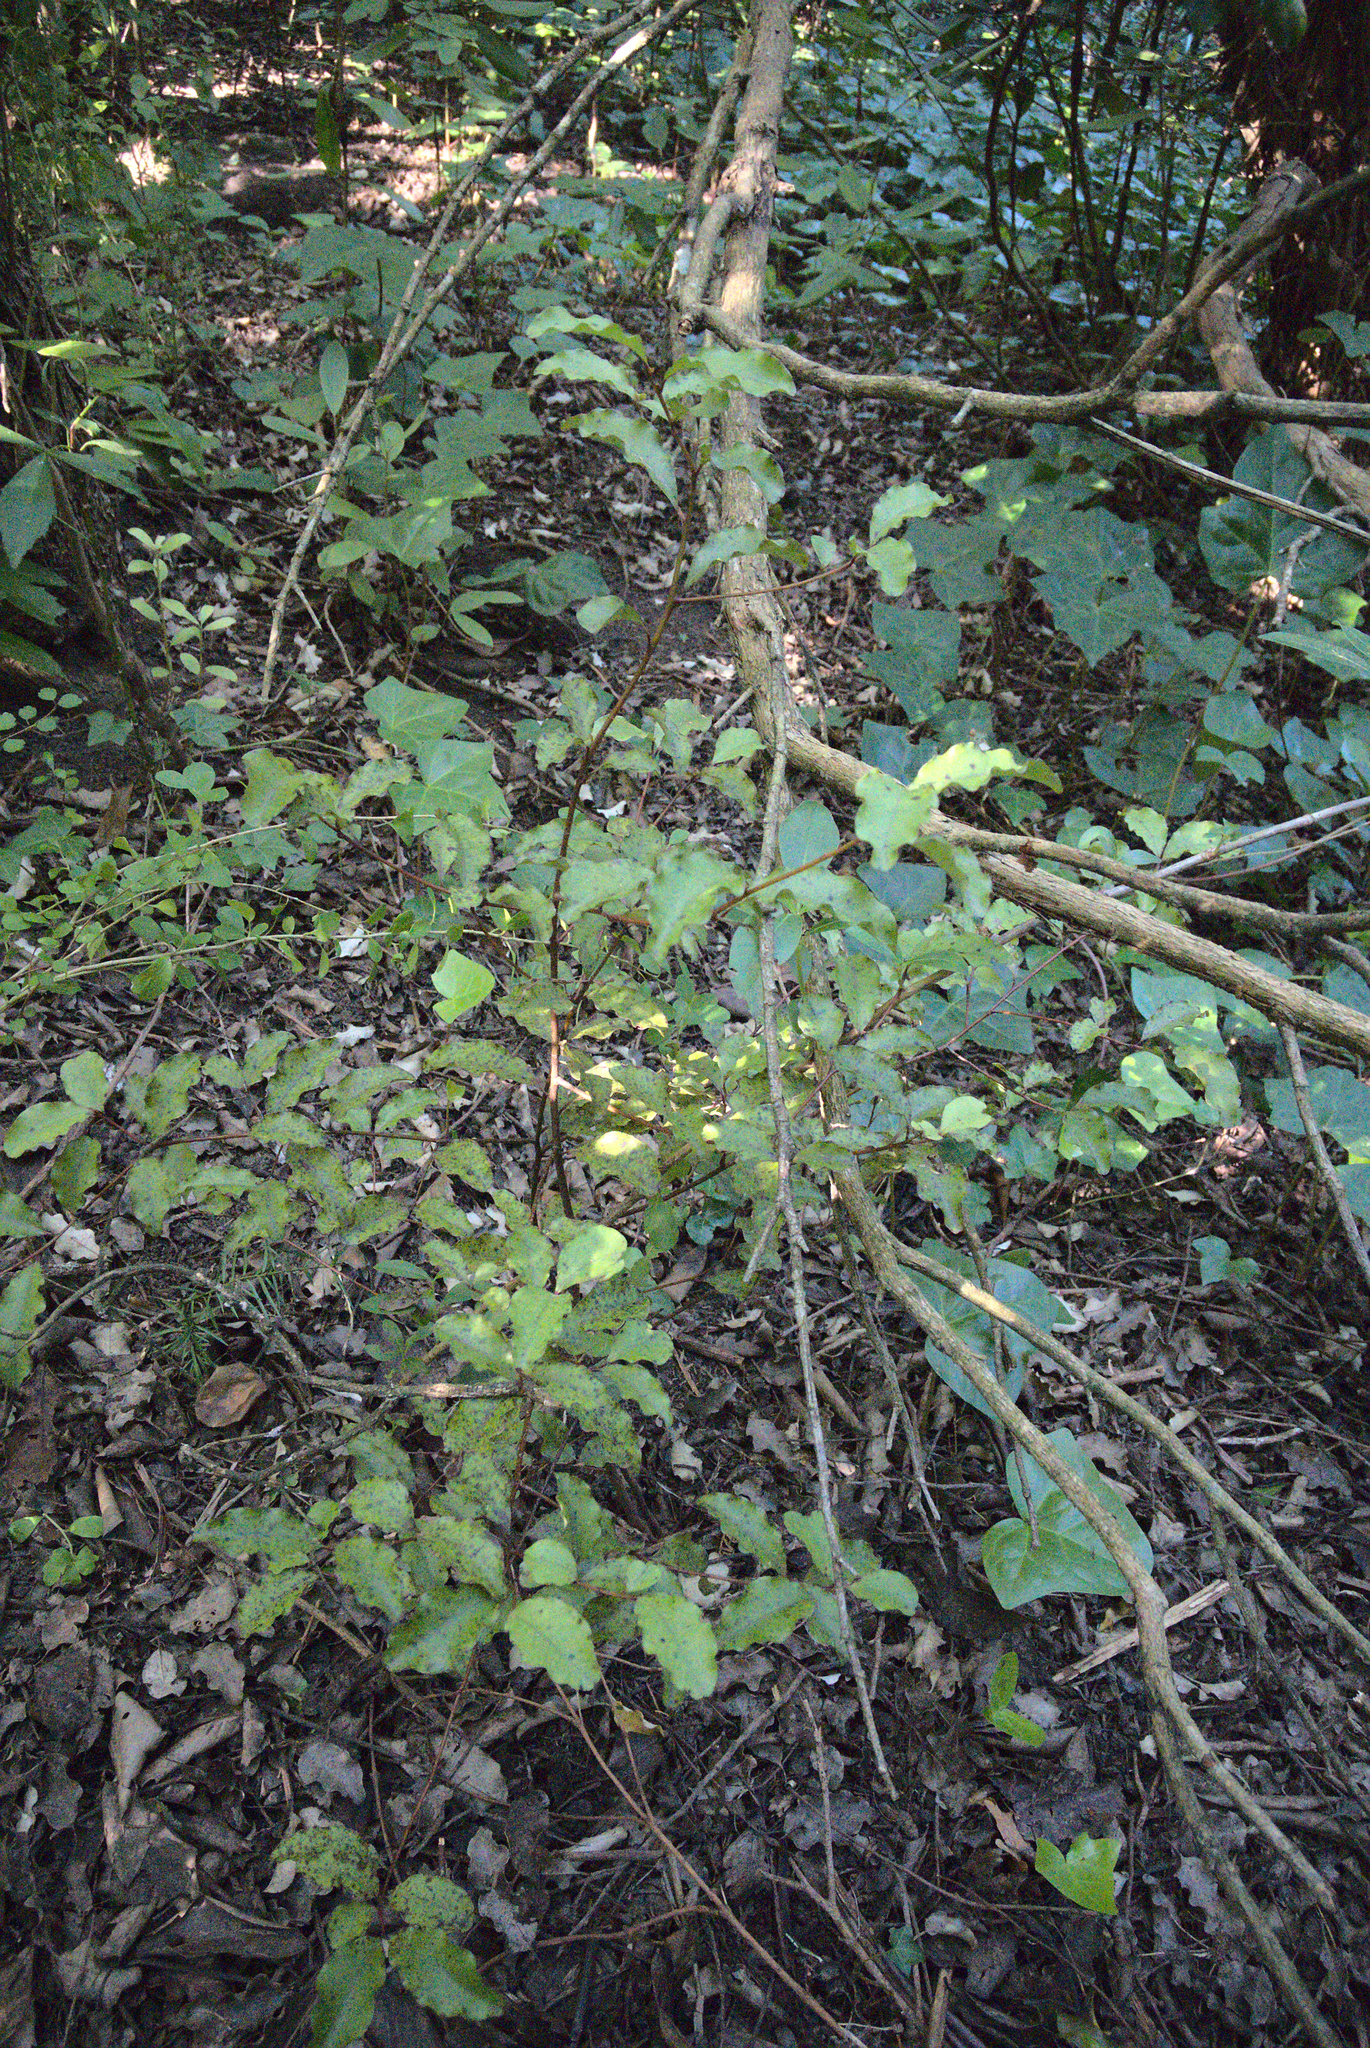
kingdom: Plantae
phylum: Tracheophyta
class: Magnoliopsida
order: Ericales
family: Primulaceae
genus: Myrsine
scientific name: Myrsine australis
